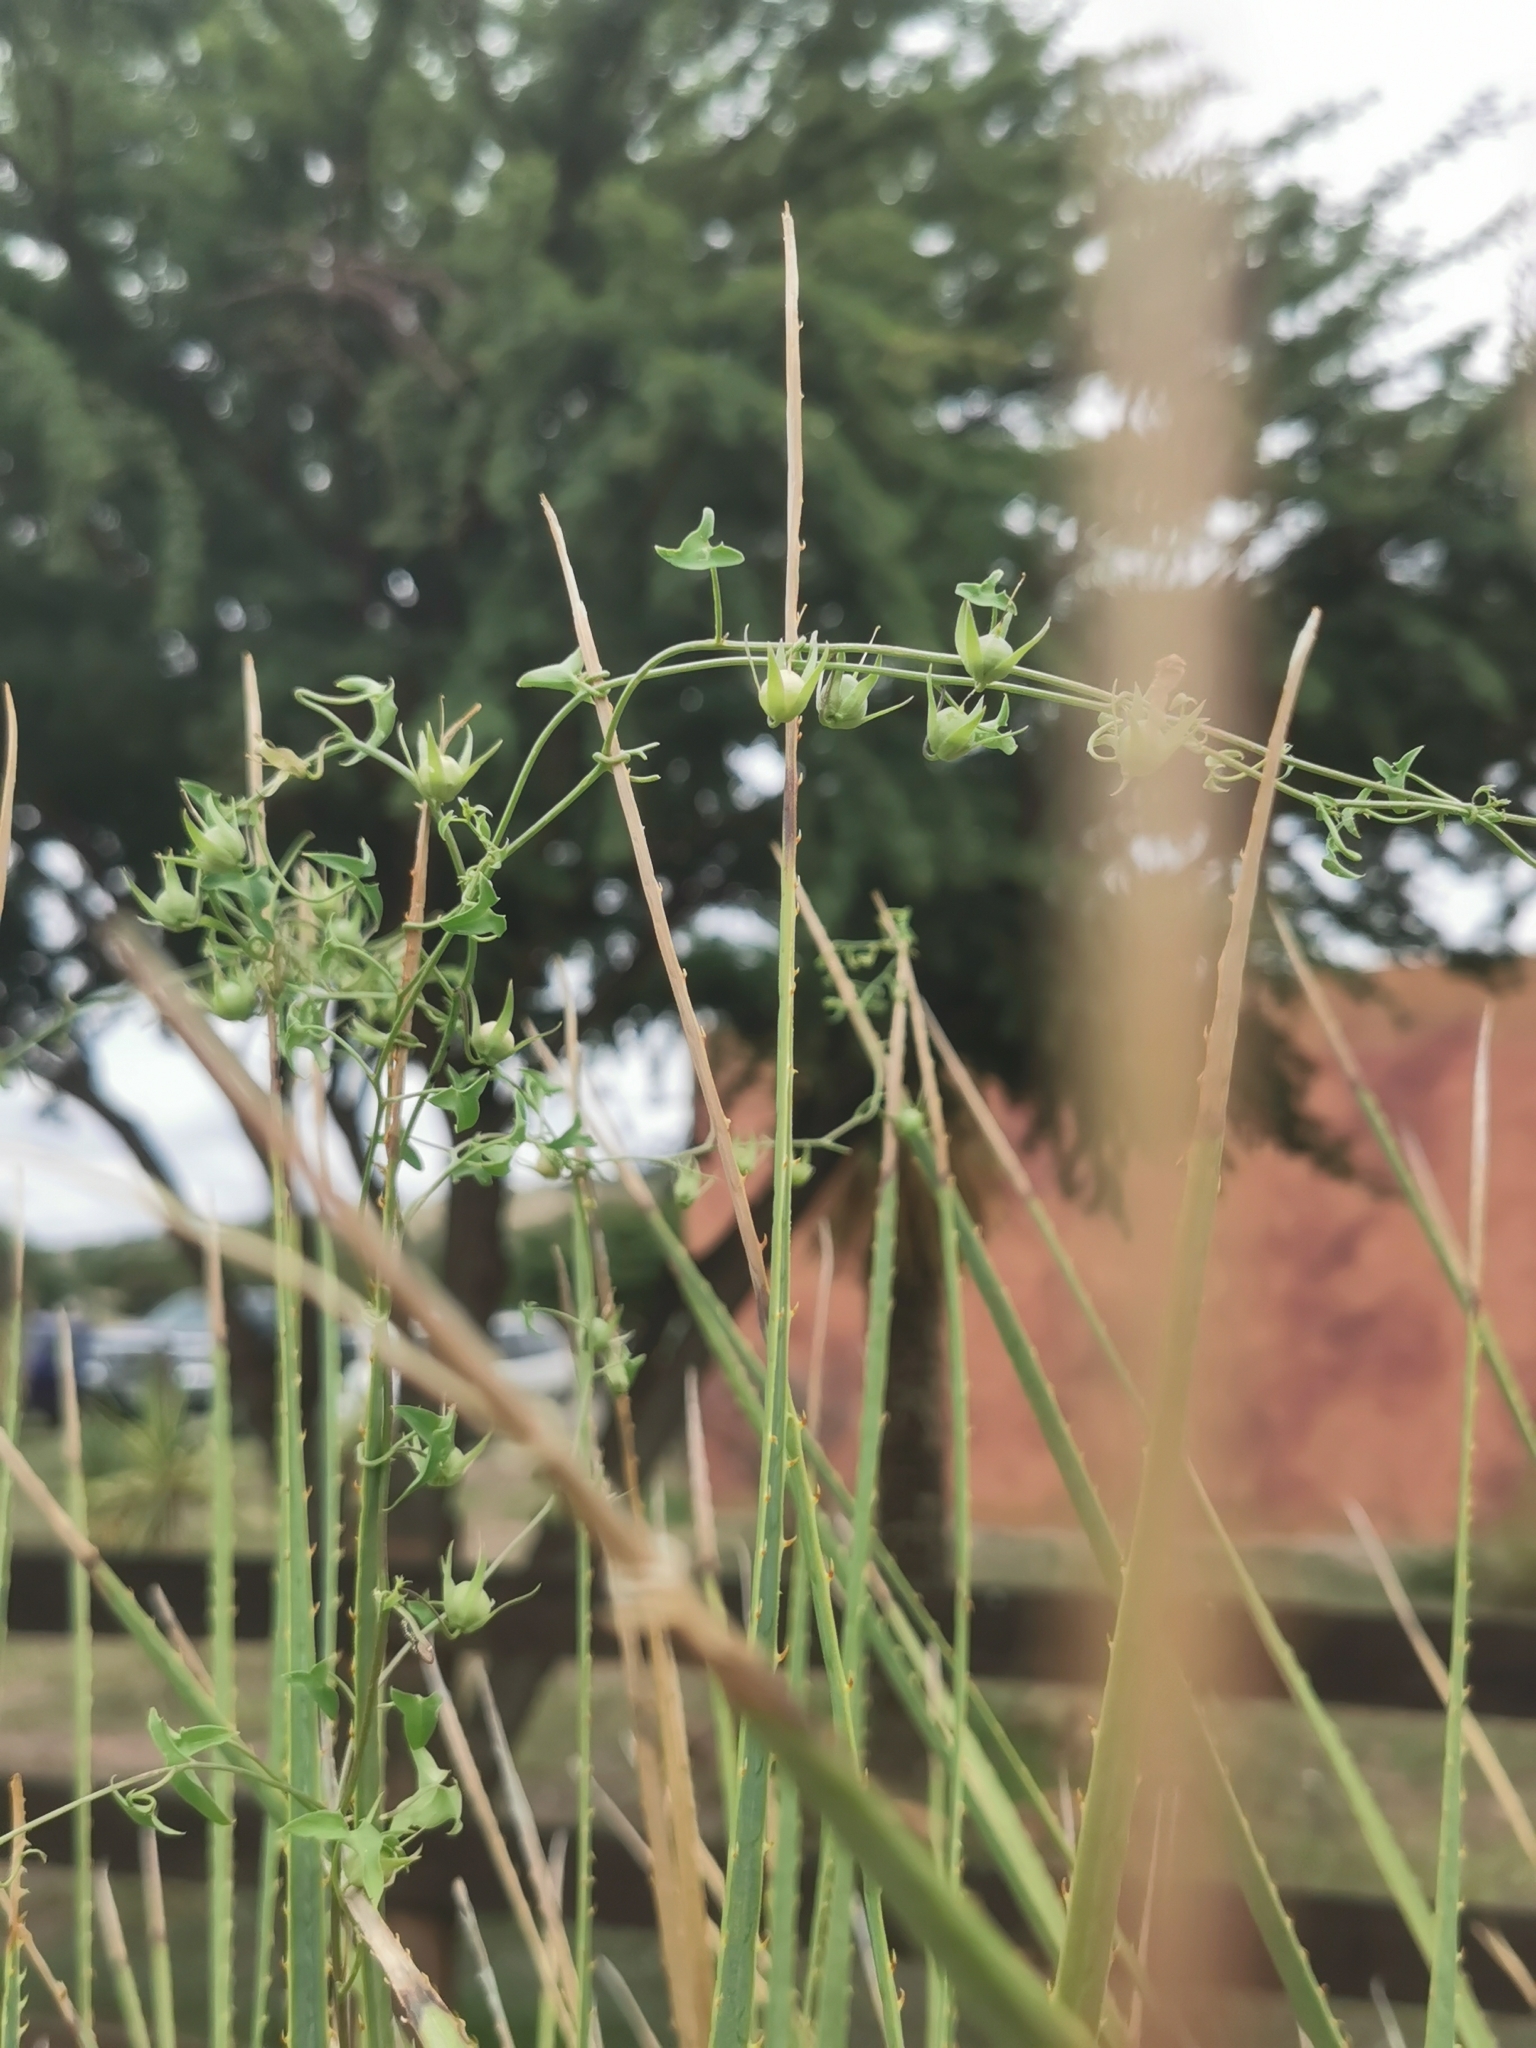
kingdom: Plantae
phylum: Tracheophyta
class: Magnoliopsida
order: Lamiales
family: Plantaginaceae
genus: Maurandella
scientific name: Maurandella antirrhiniflora
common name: Violet twining-snapdragon
